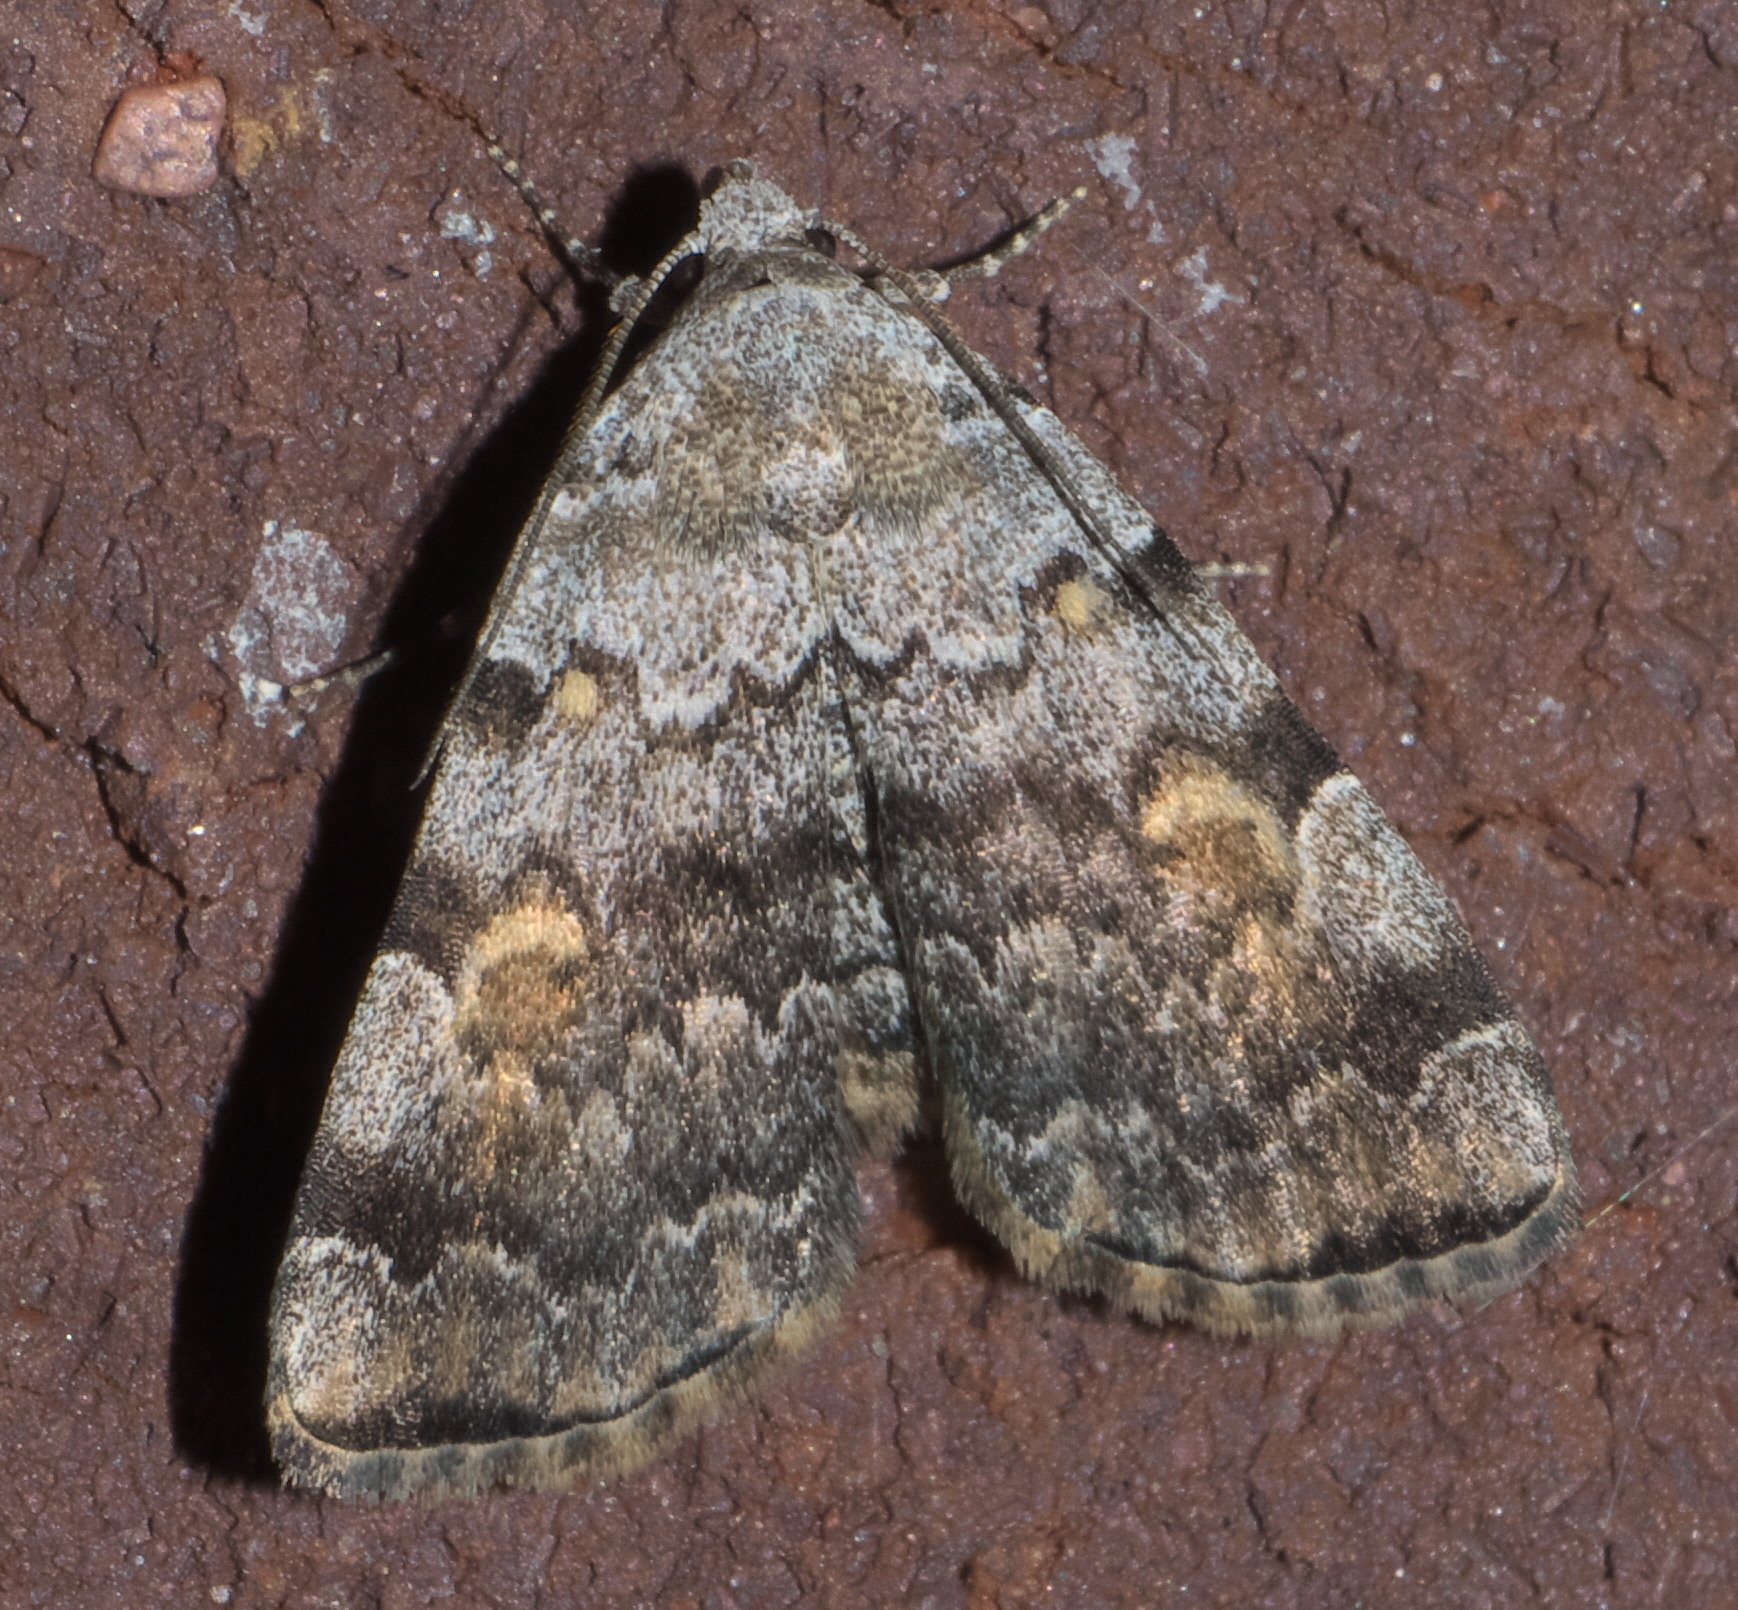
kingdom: Animalia
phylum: Arthropoda
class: Insecta
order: Lepidoptera
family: Erebidae
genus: Idia
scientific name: Idia americalis
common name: American idia moth
